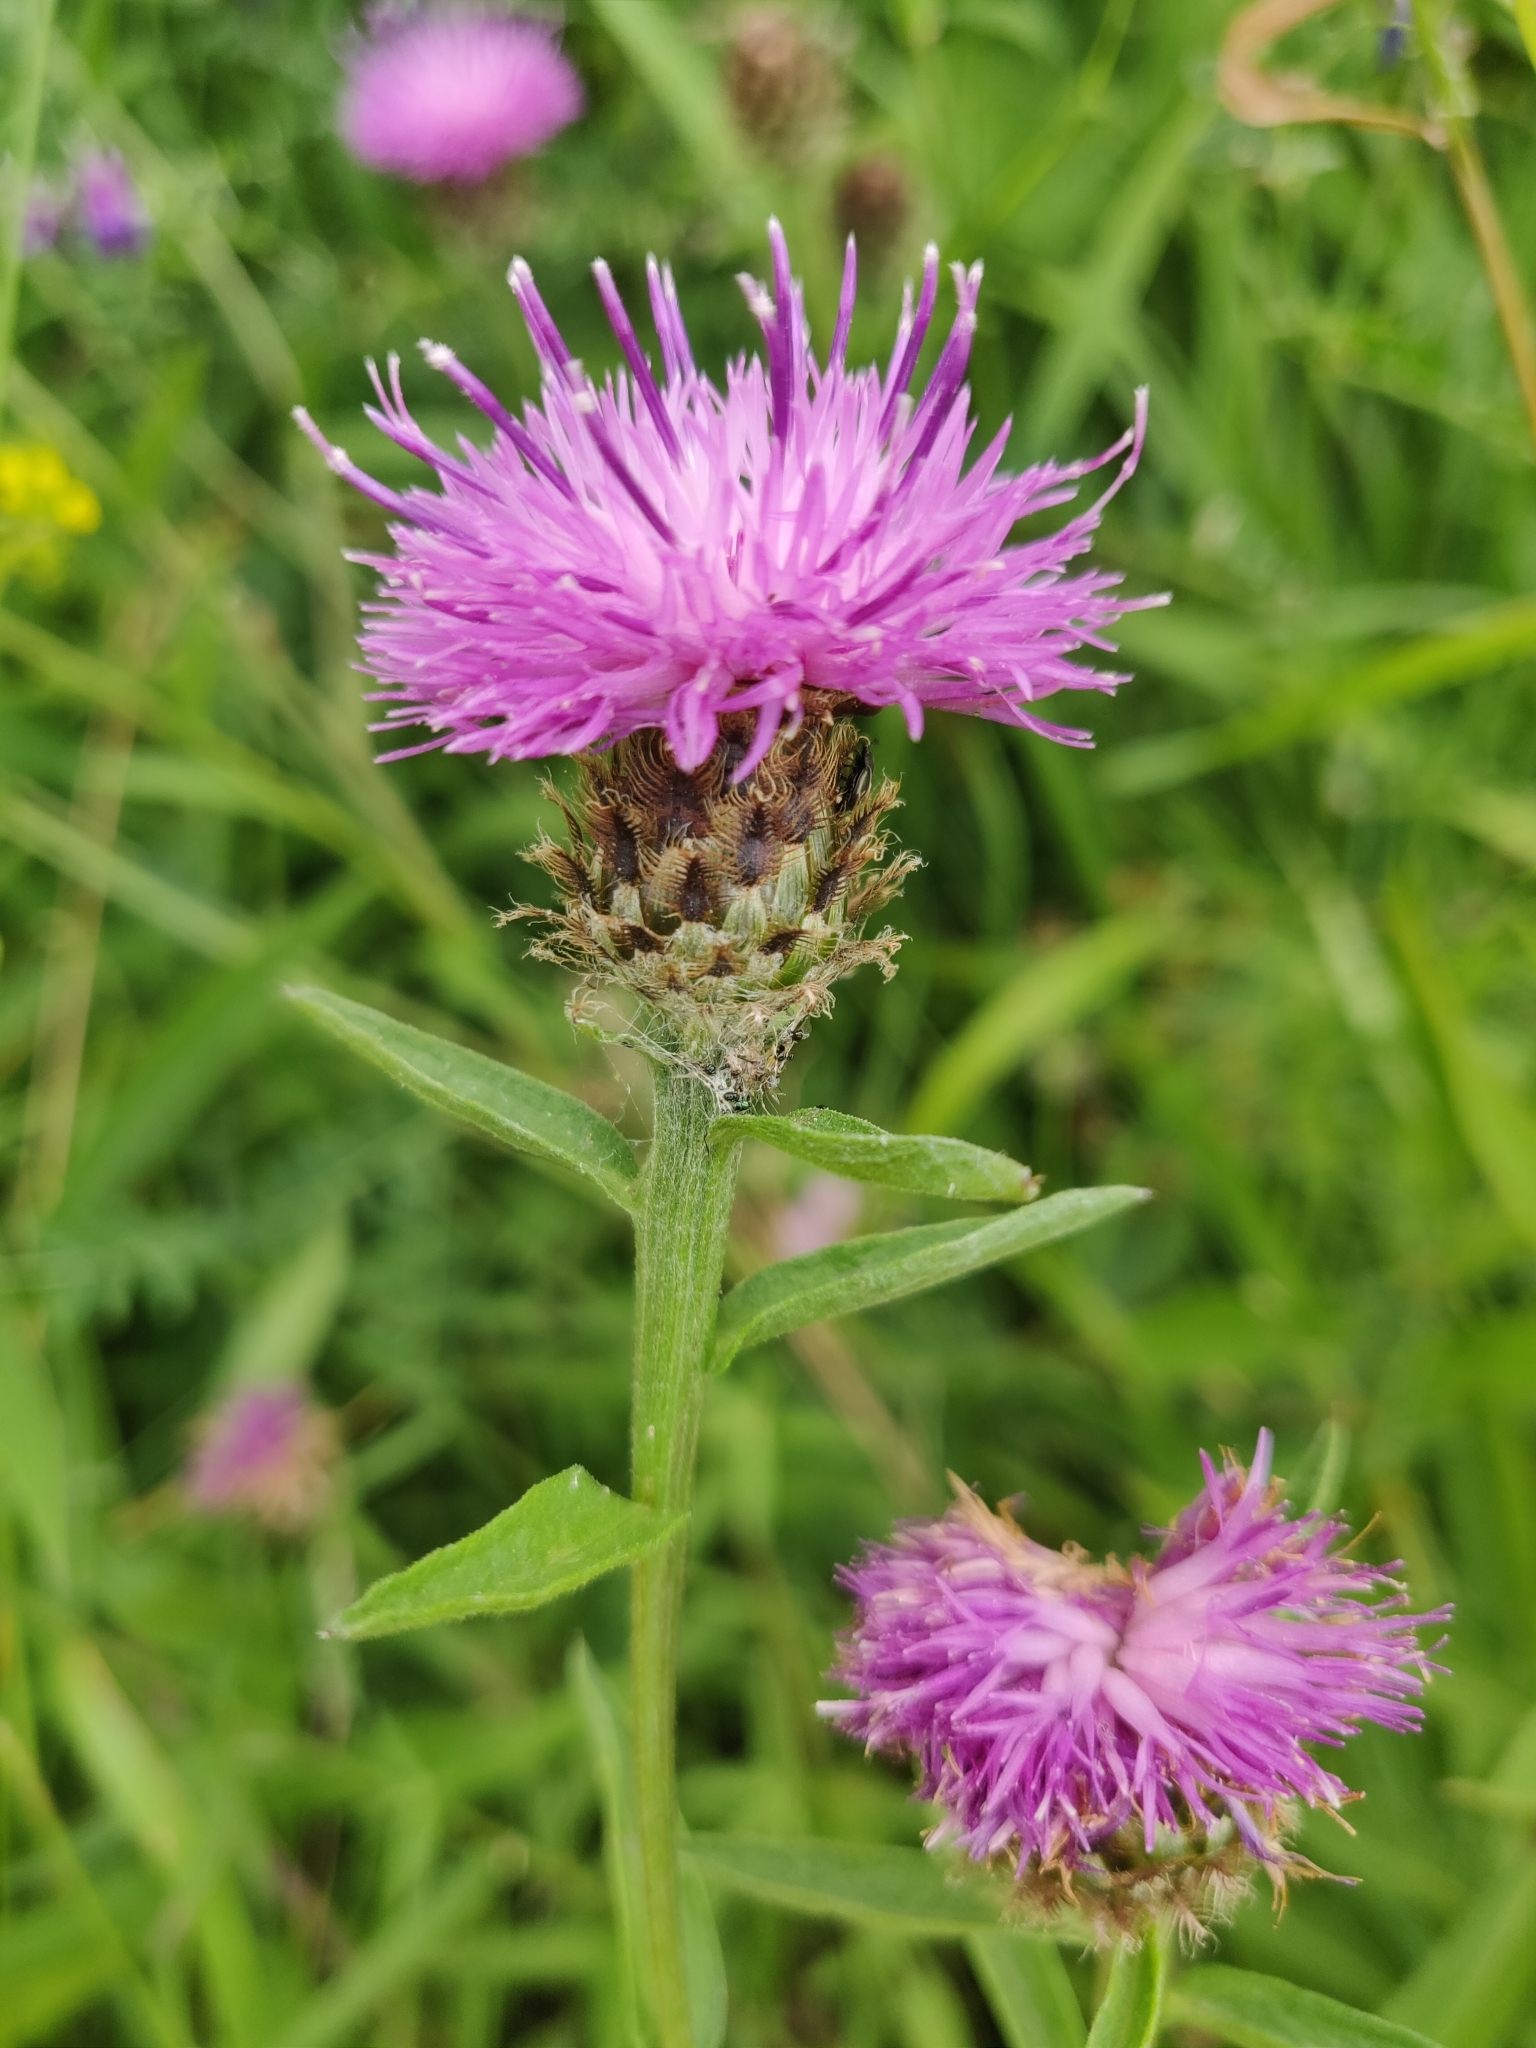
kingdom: Plantae
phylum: Tracheophyta
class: Magnoliopsida
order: Asterales
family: Asteraceae
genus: Centaurea
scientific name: Centaurea nigra
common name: Lesser knapweed
